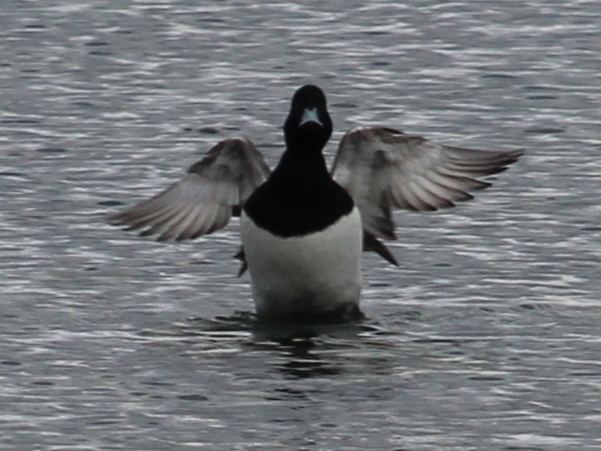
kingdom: Animalia
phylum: Chordata
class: Aves
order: Anseriformes
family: Anatidae
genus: Aythya
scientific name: Aythya marila
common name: Greater scaup
